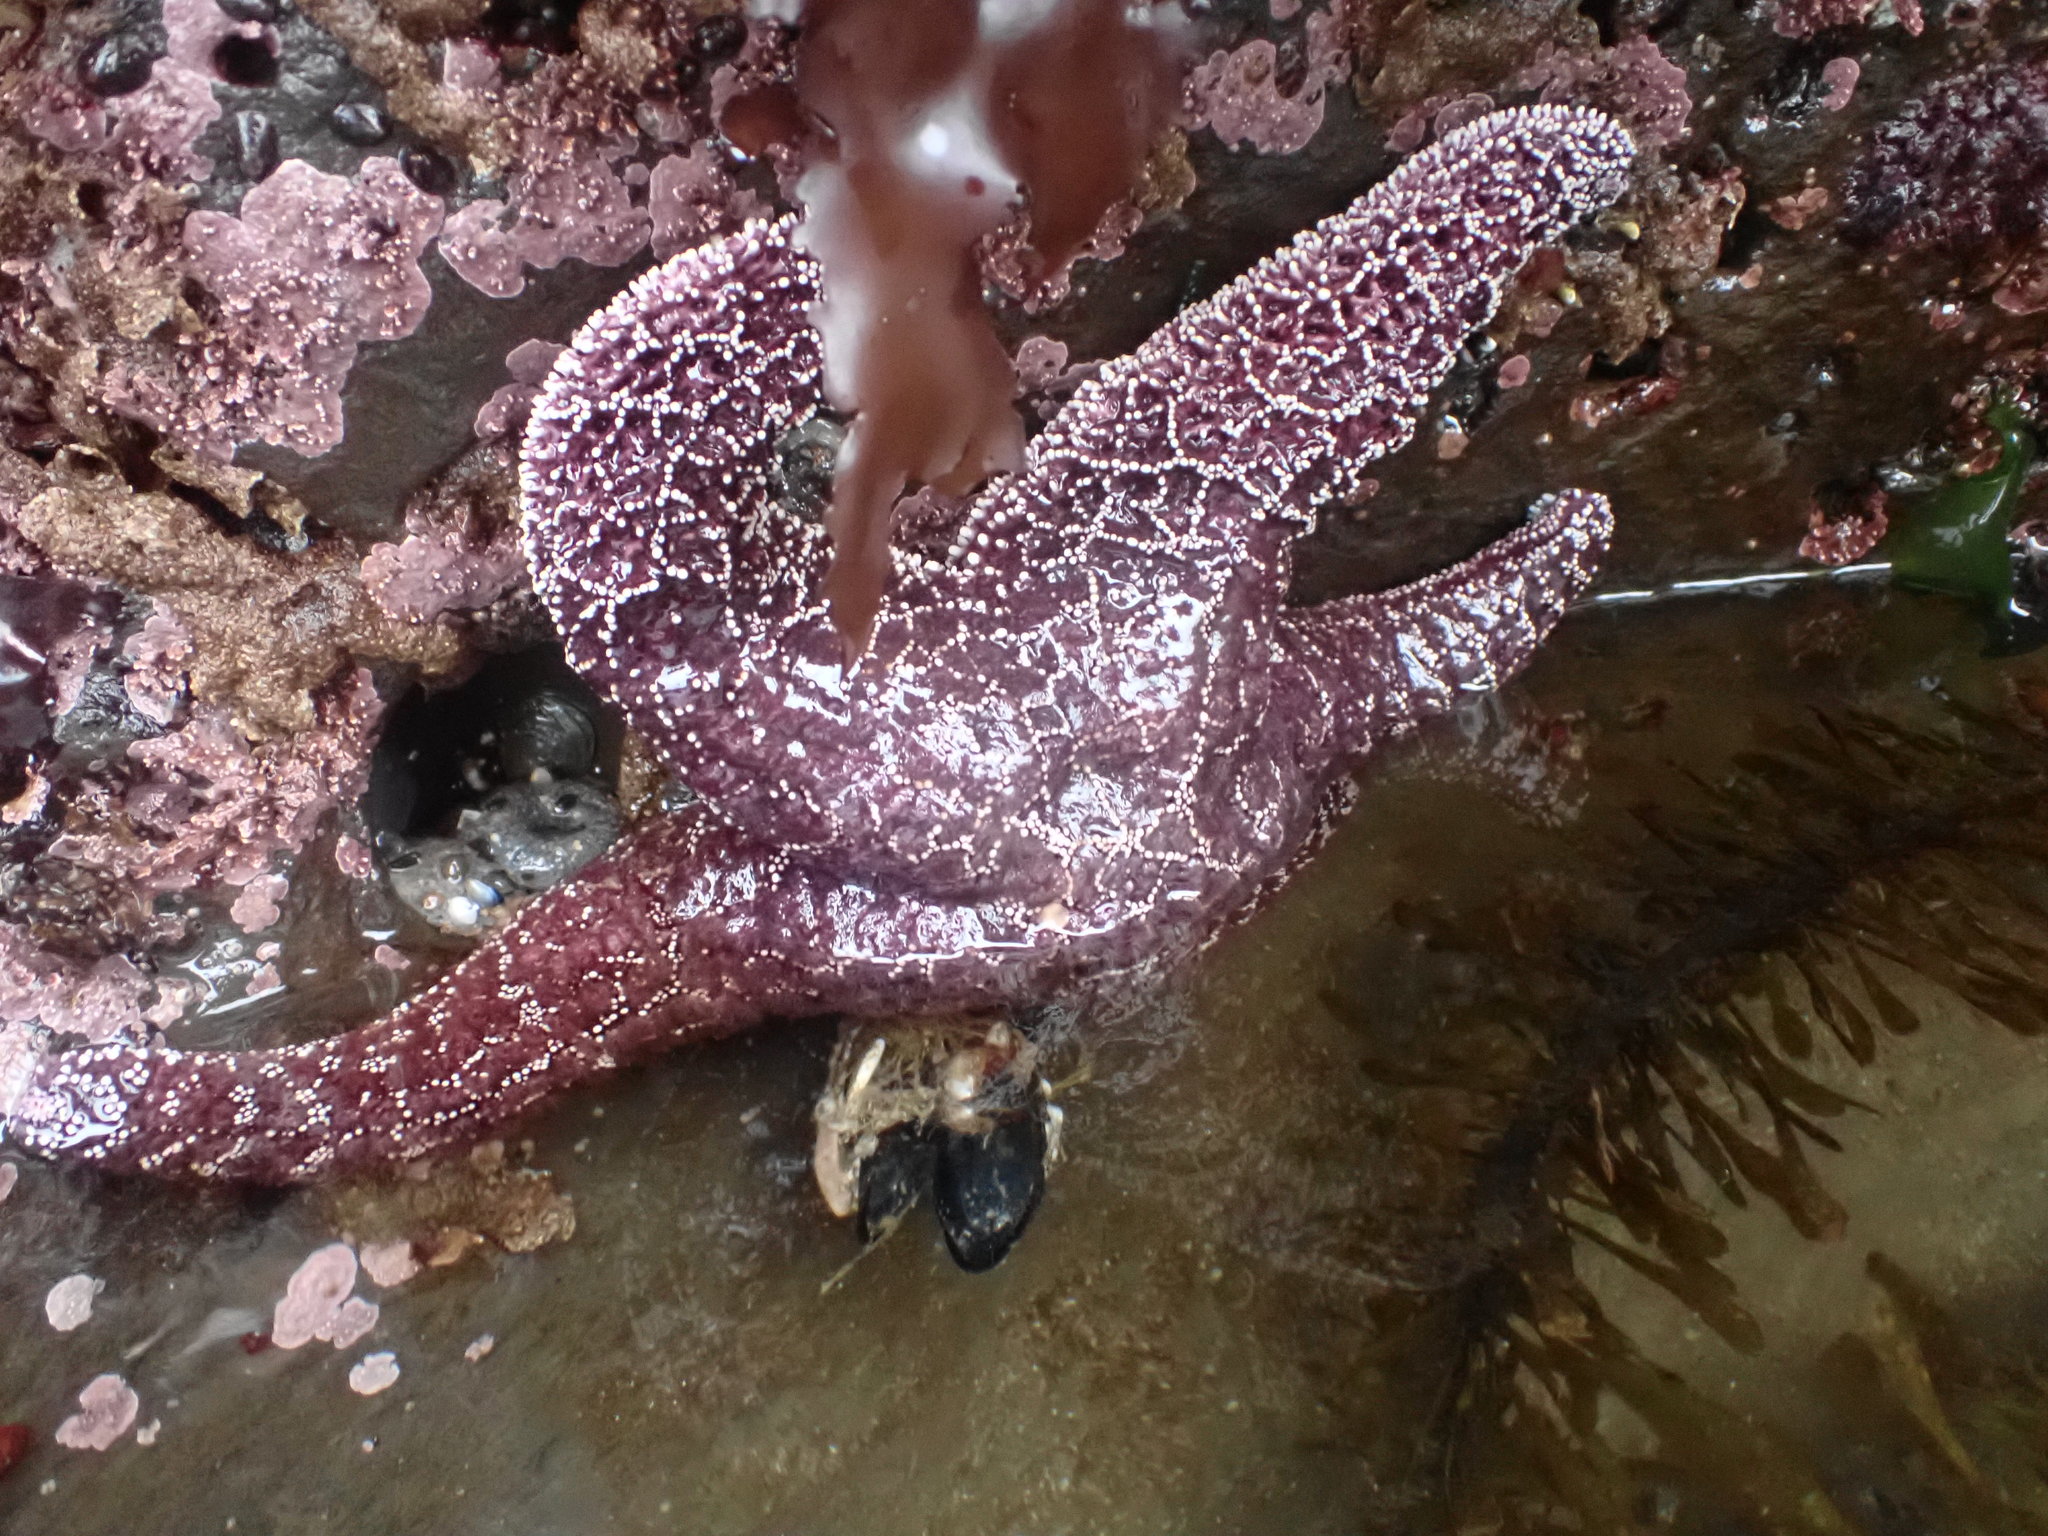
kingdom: Animalia
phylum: Echinodermata
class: Asteroidea
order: Forcipulatida
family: Asteriidae
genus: Pisaster
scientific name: Pisaster ochraceus
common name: Ochre stars
